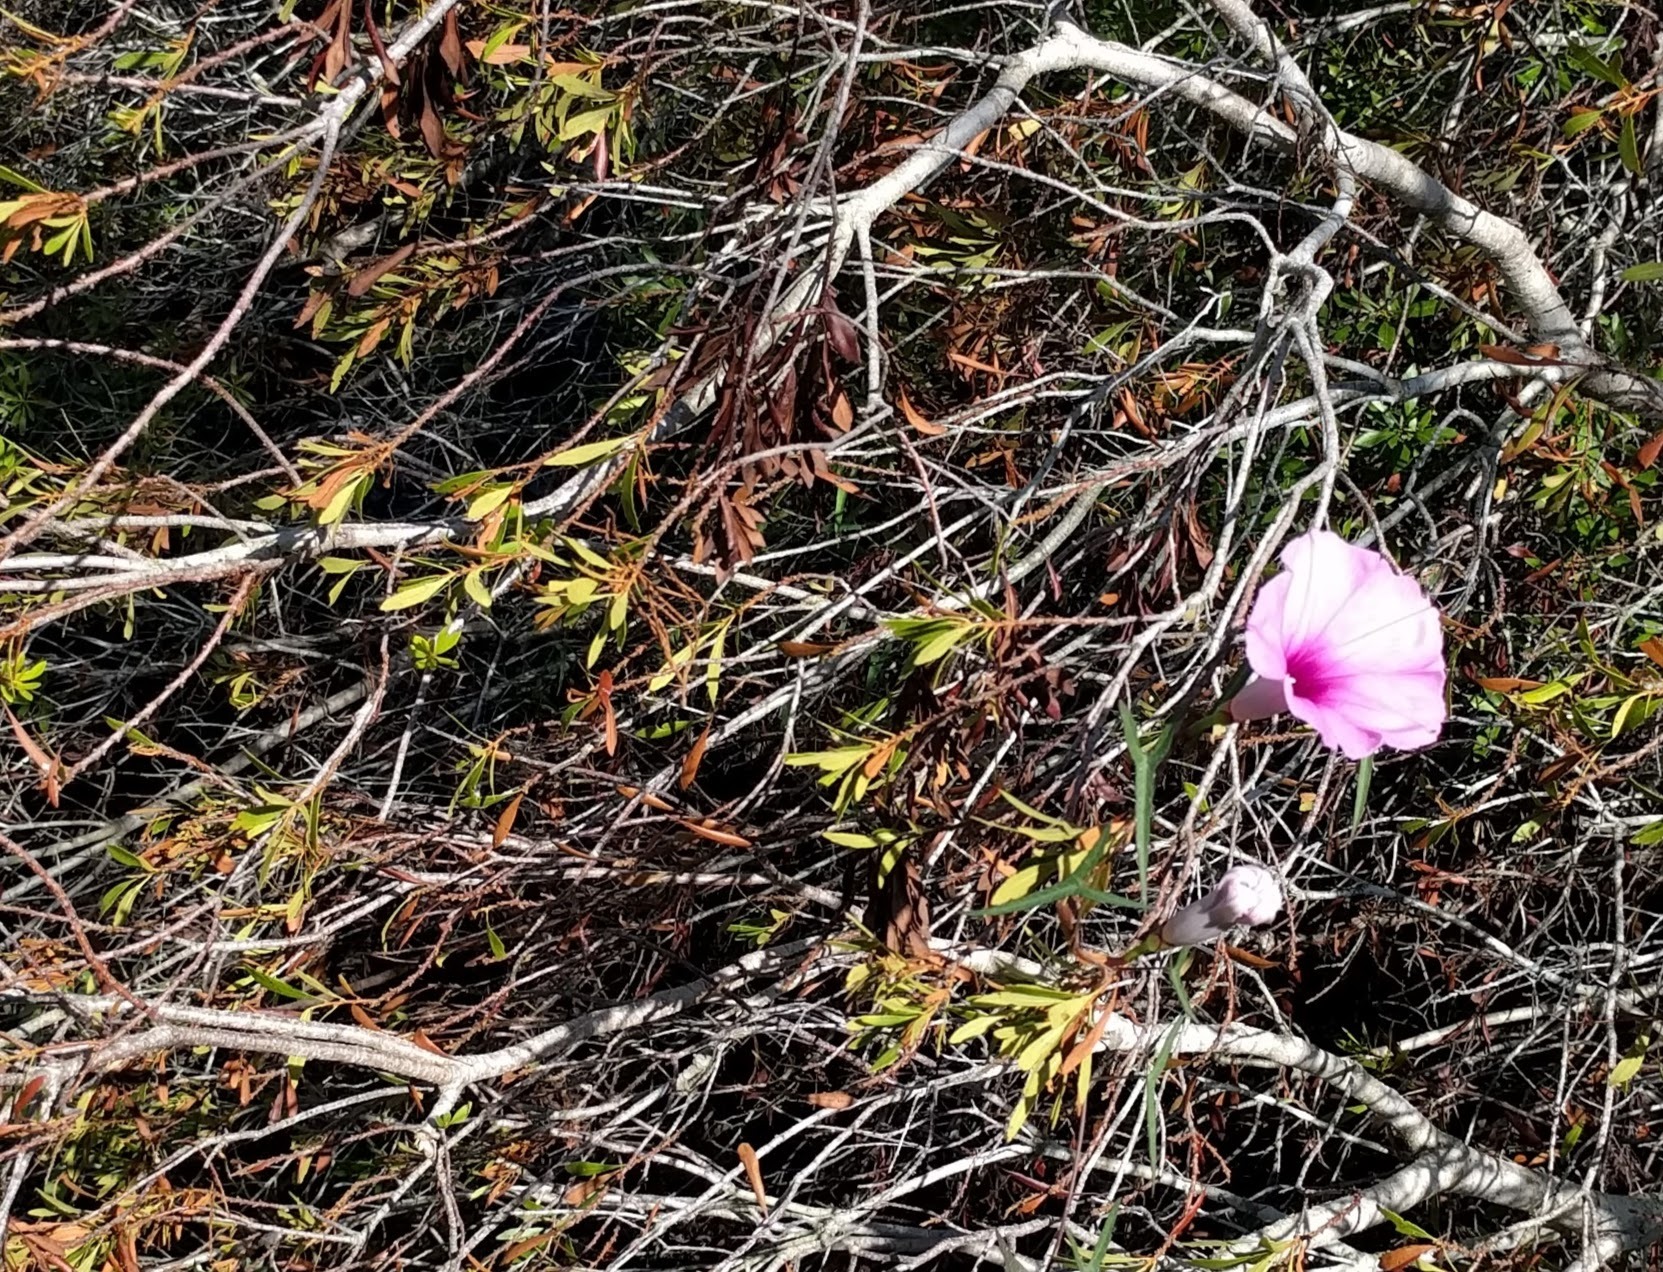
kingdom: Plantae
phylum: Tracheophyta
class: Magnoliopsida
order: Solanales
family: Convolvulaceae
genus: Ipomoea
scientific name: Ipomoea sagittata
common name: Saltmarsh morning glory
